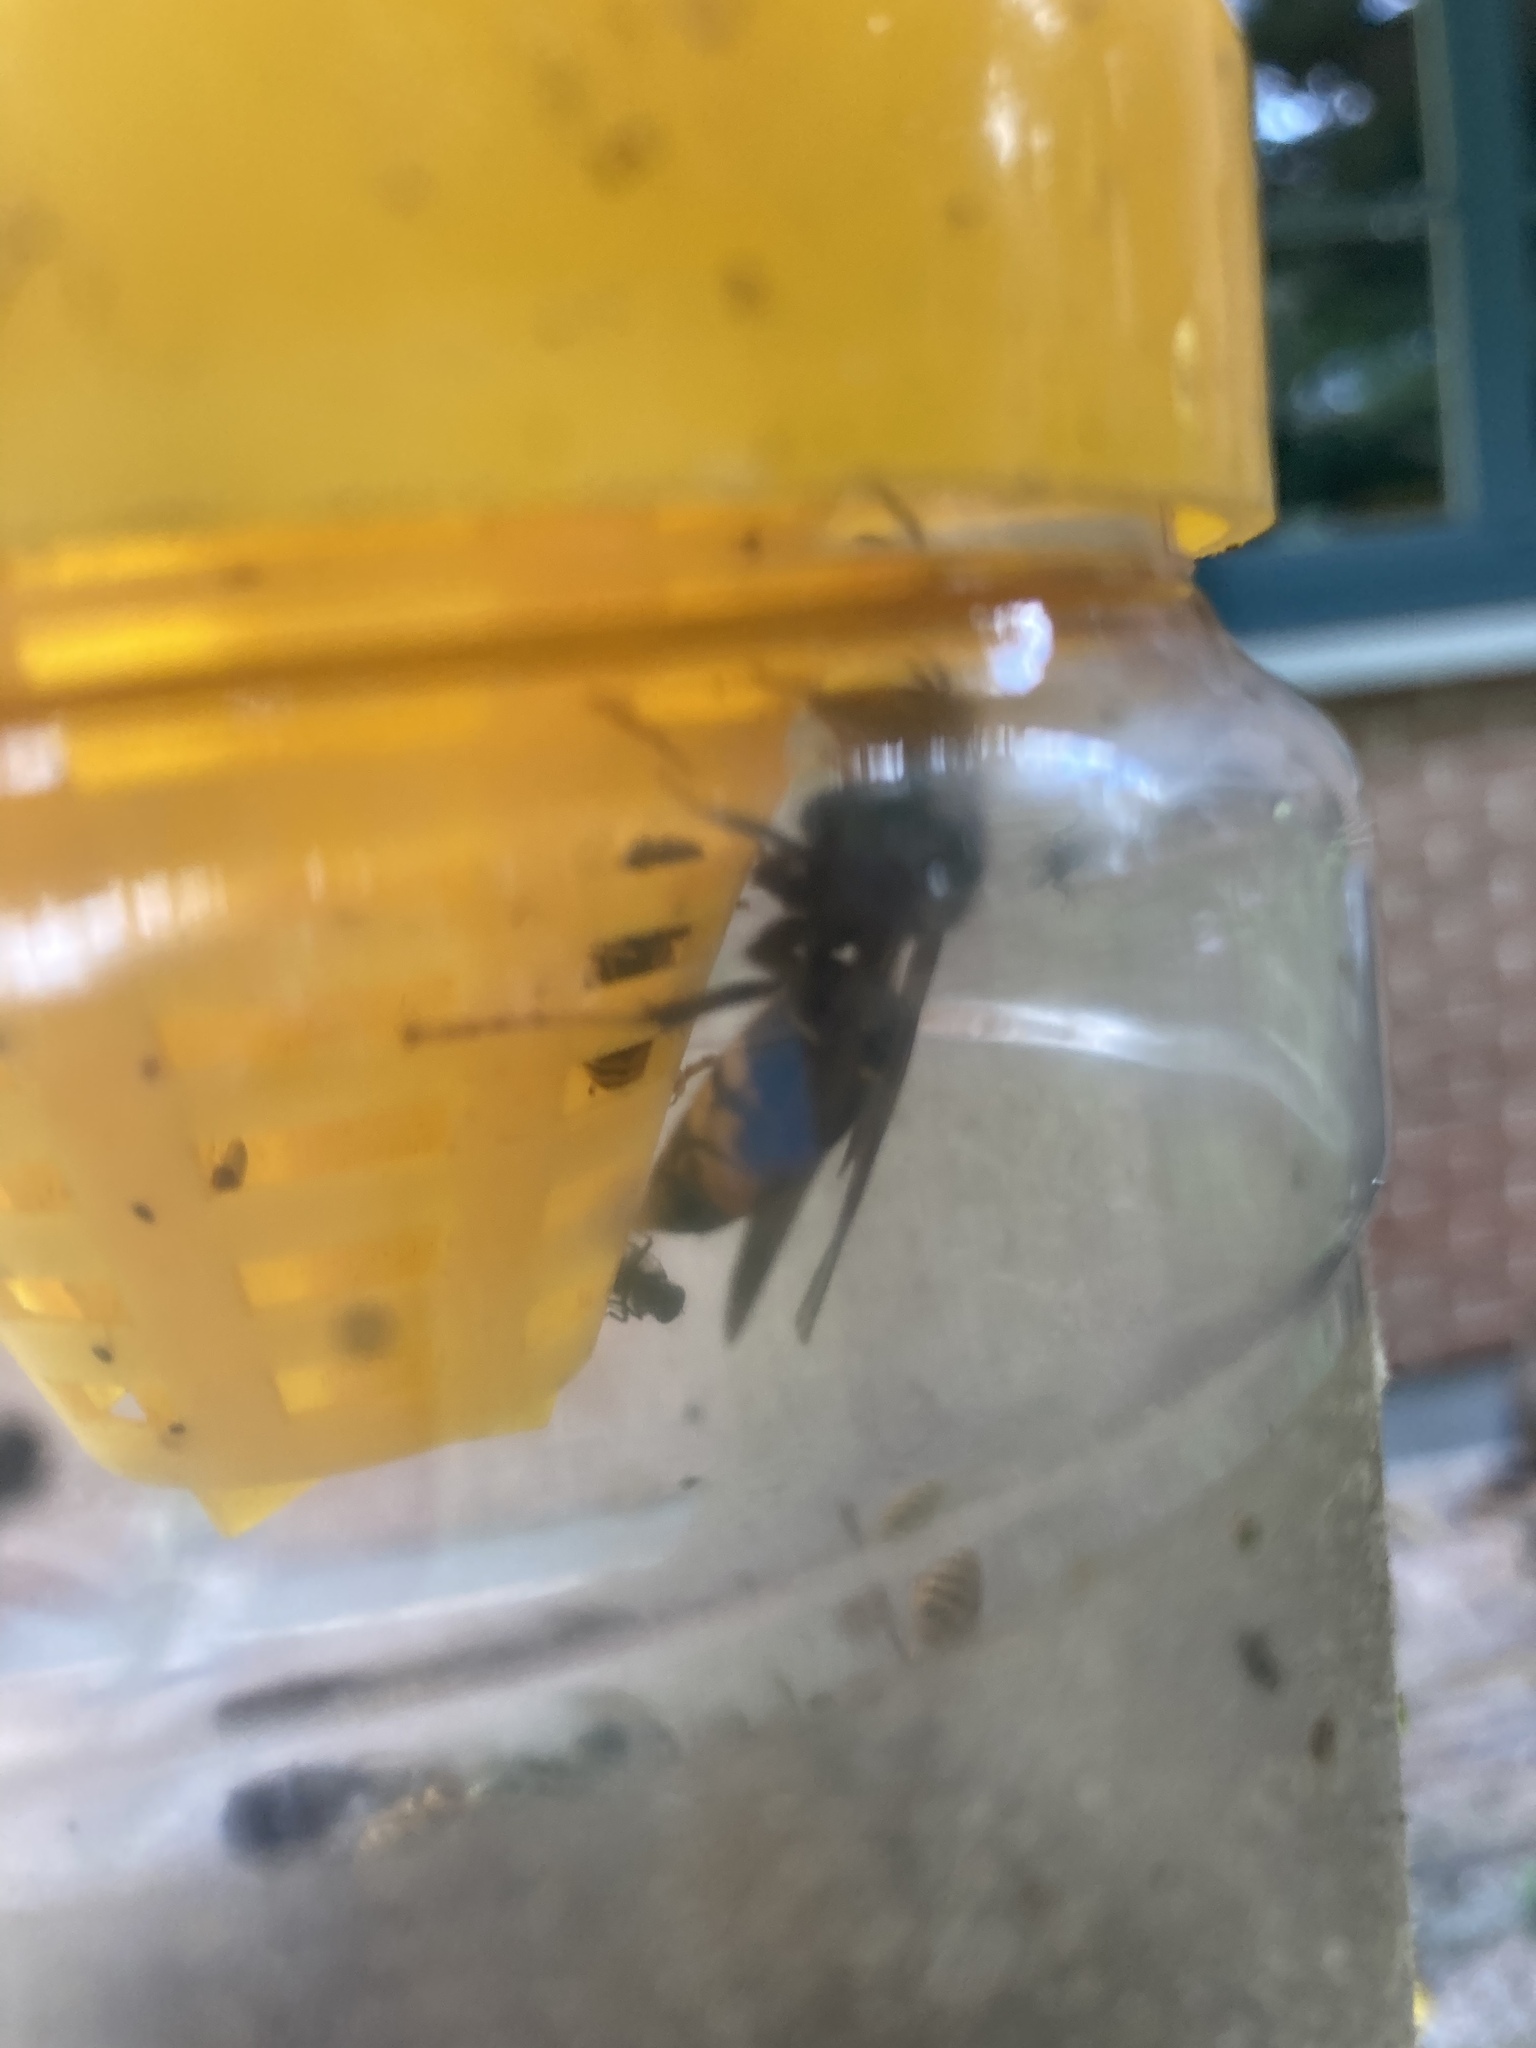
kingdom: Animalia
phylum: Arthropoda
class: Insecta
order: Hymenoptera
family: Vespidae
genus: Vespa
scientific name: Vespa velutina
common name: Asian hornet
